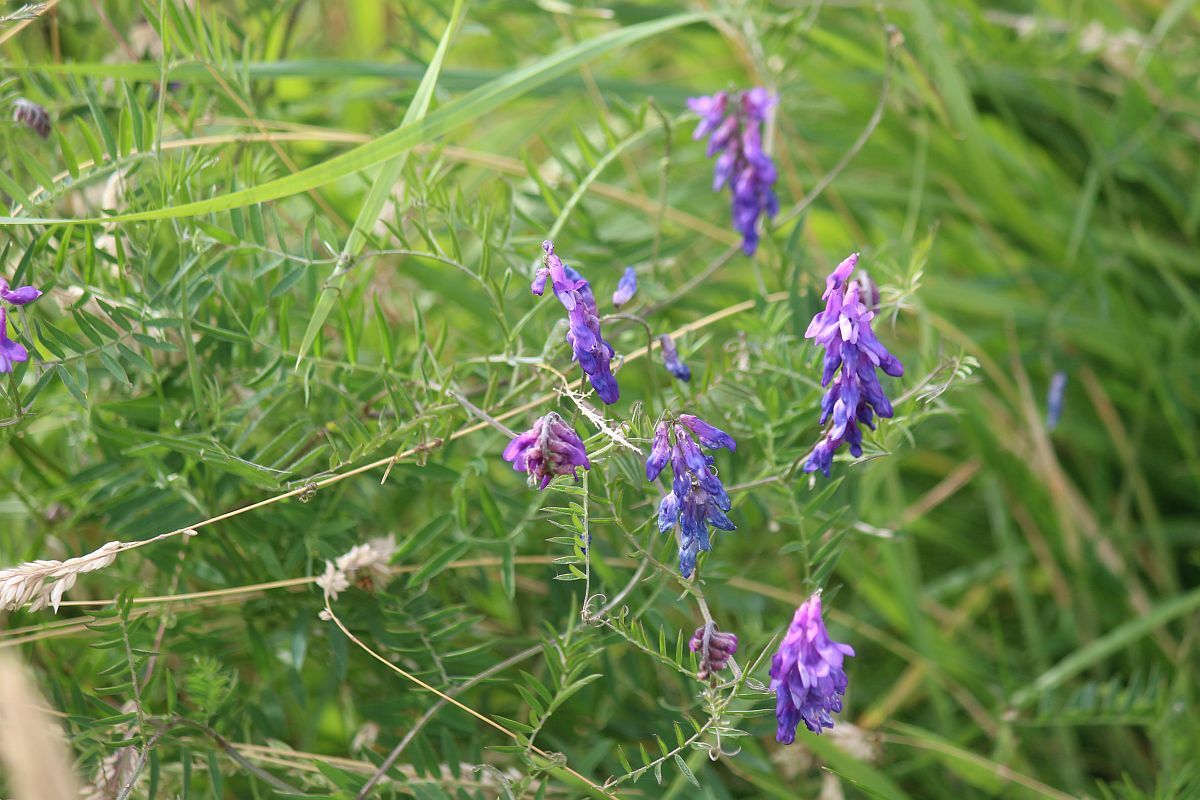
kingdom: Plantae
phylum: Tracheophyta
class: Magnoliopsida
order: Fabales
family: Fabaceae
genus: Vicia
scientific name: Vicia cracca
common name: Bird vetch
